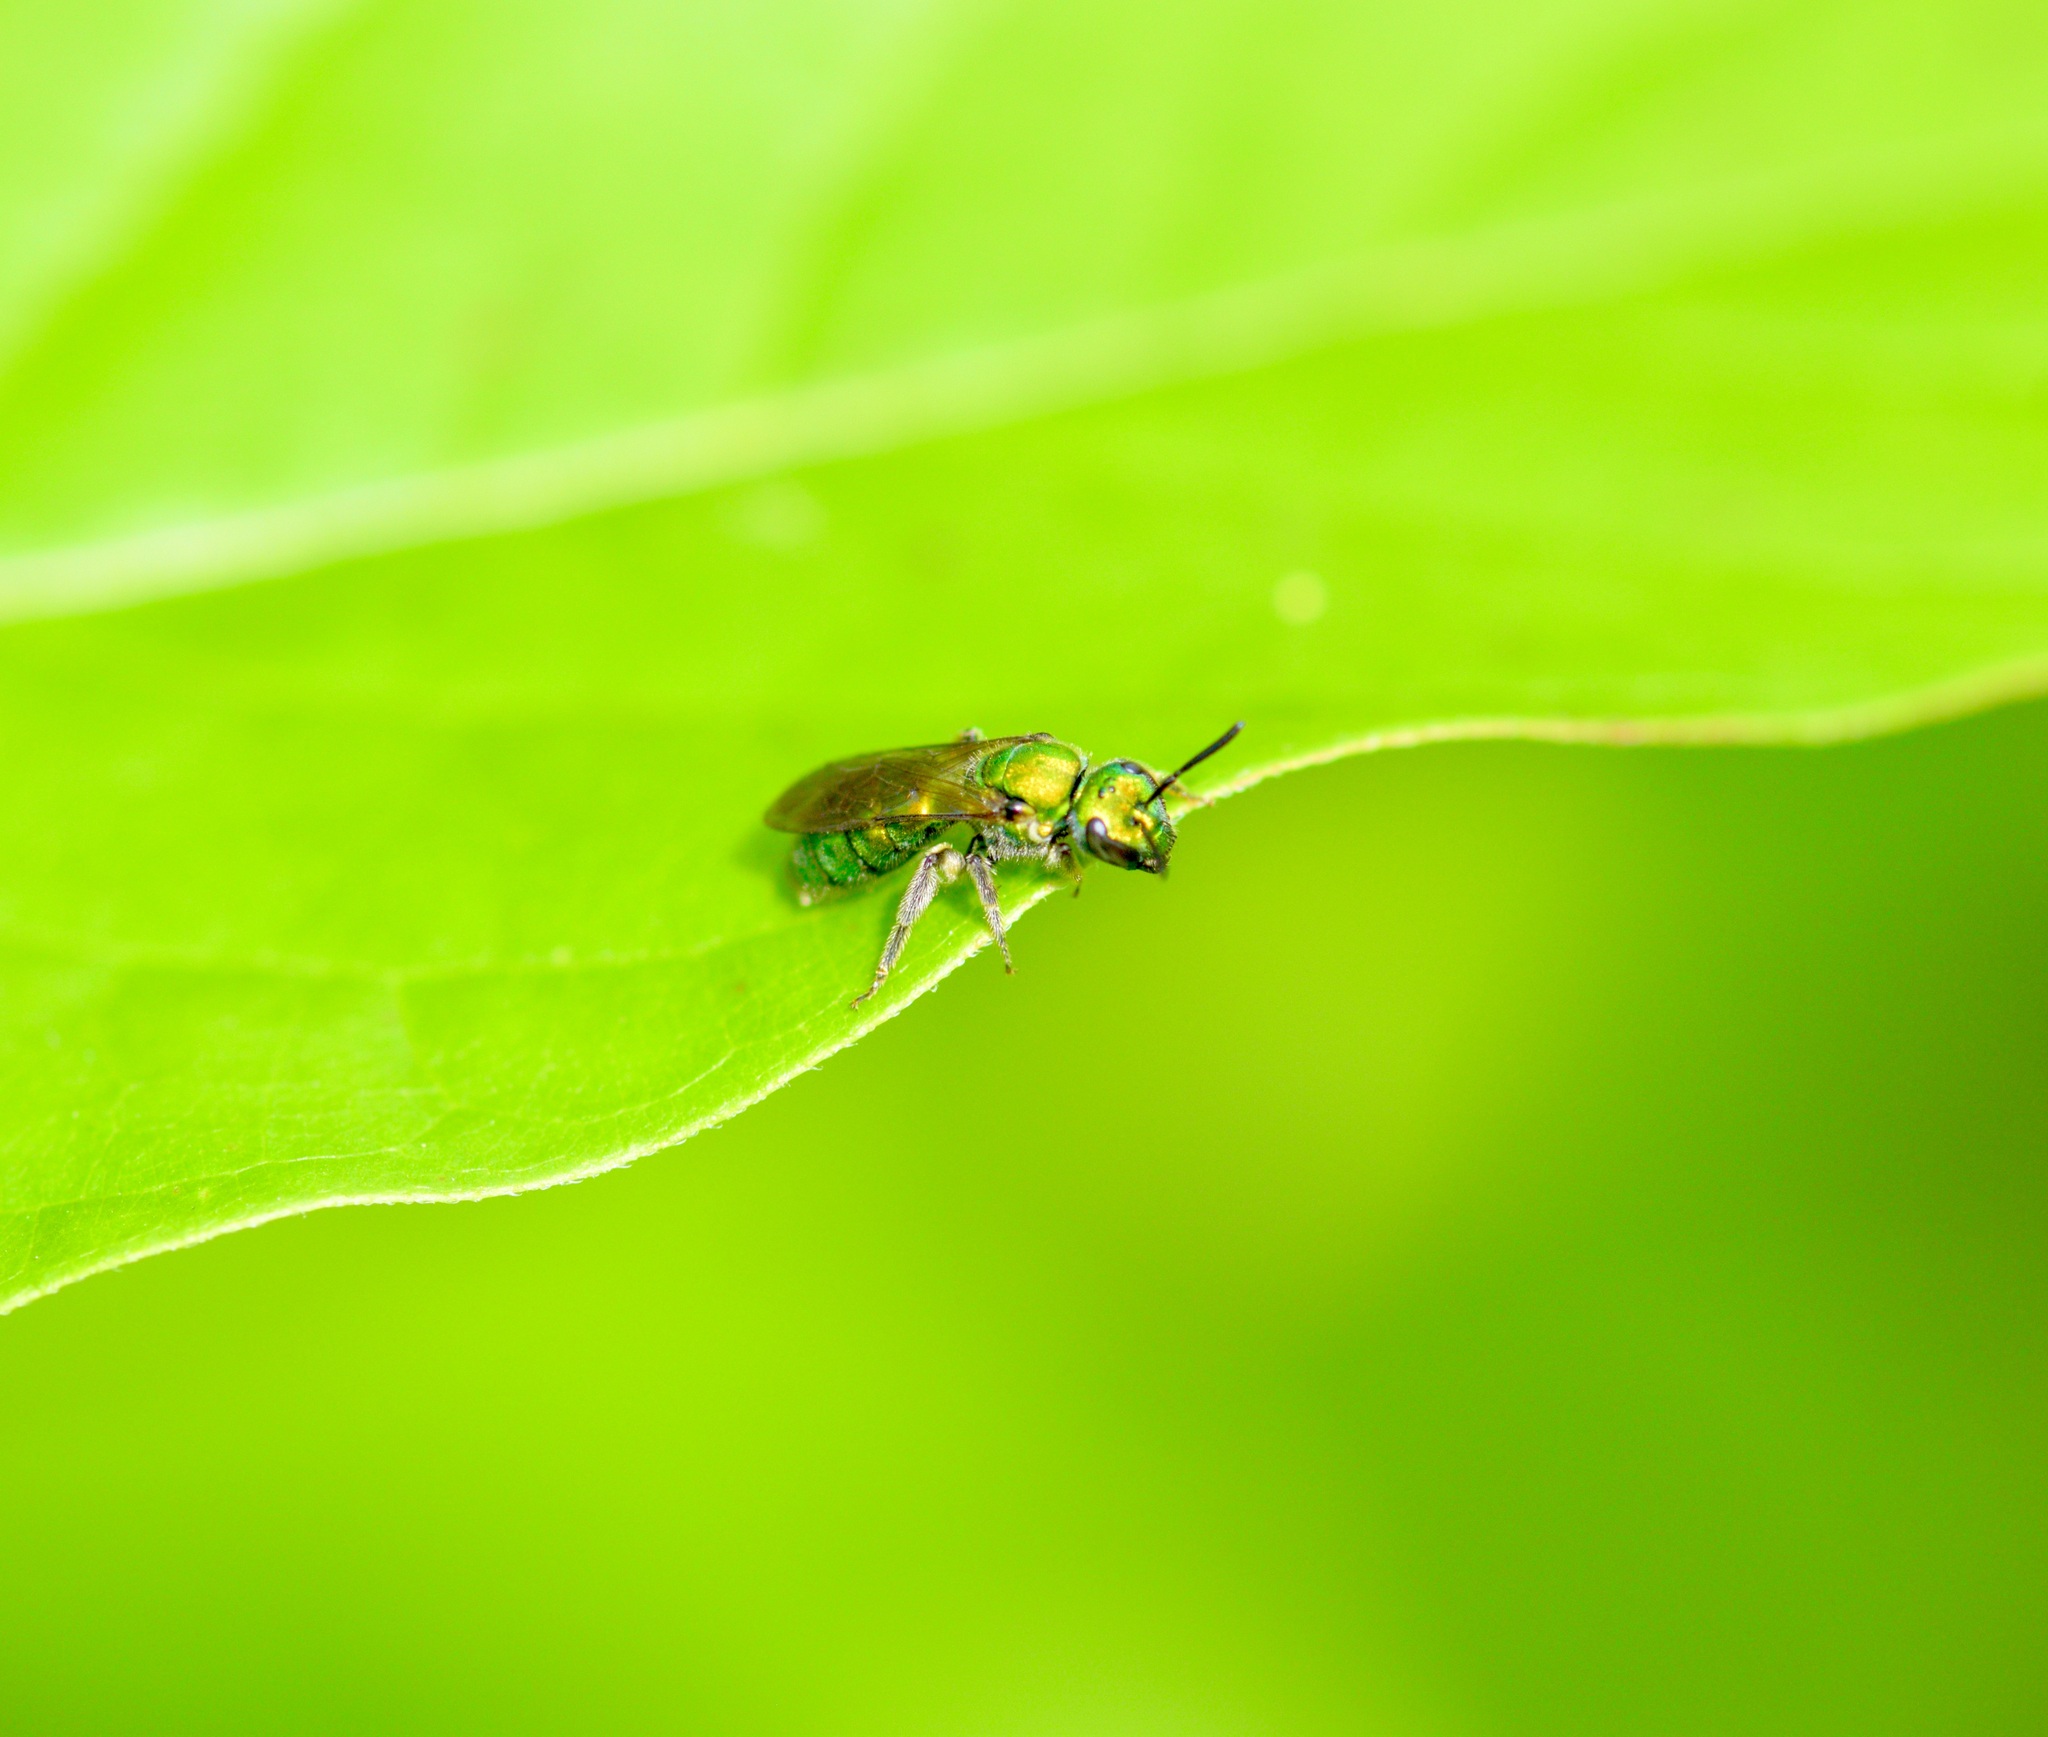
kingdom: Animalia
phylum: Arthropoda
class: Insecta
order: Hymenoptera
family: Halictidae
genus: Augochlora
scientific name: Augochlora pura
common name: Pure green sweat bee
